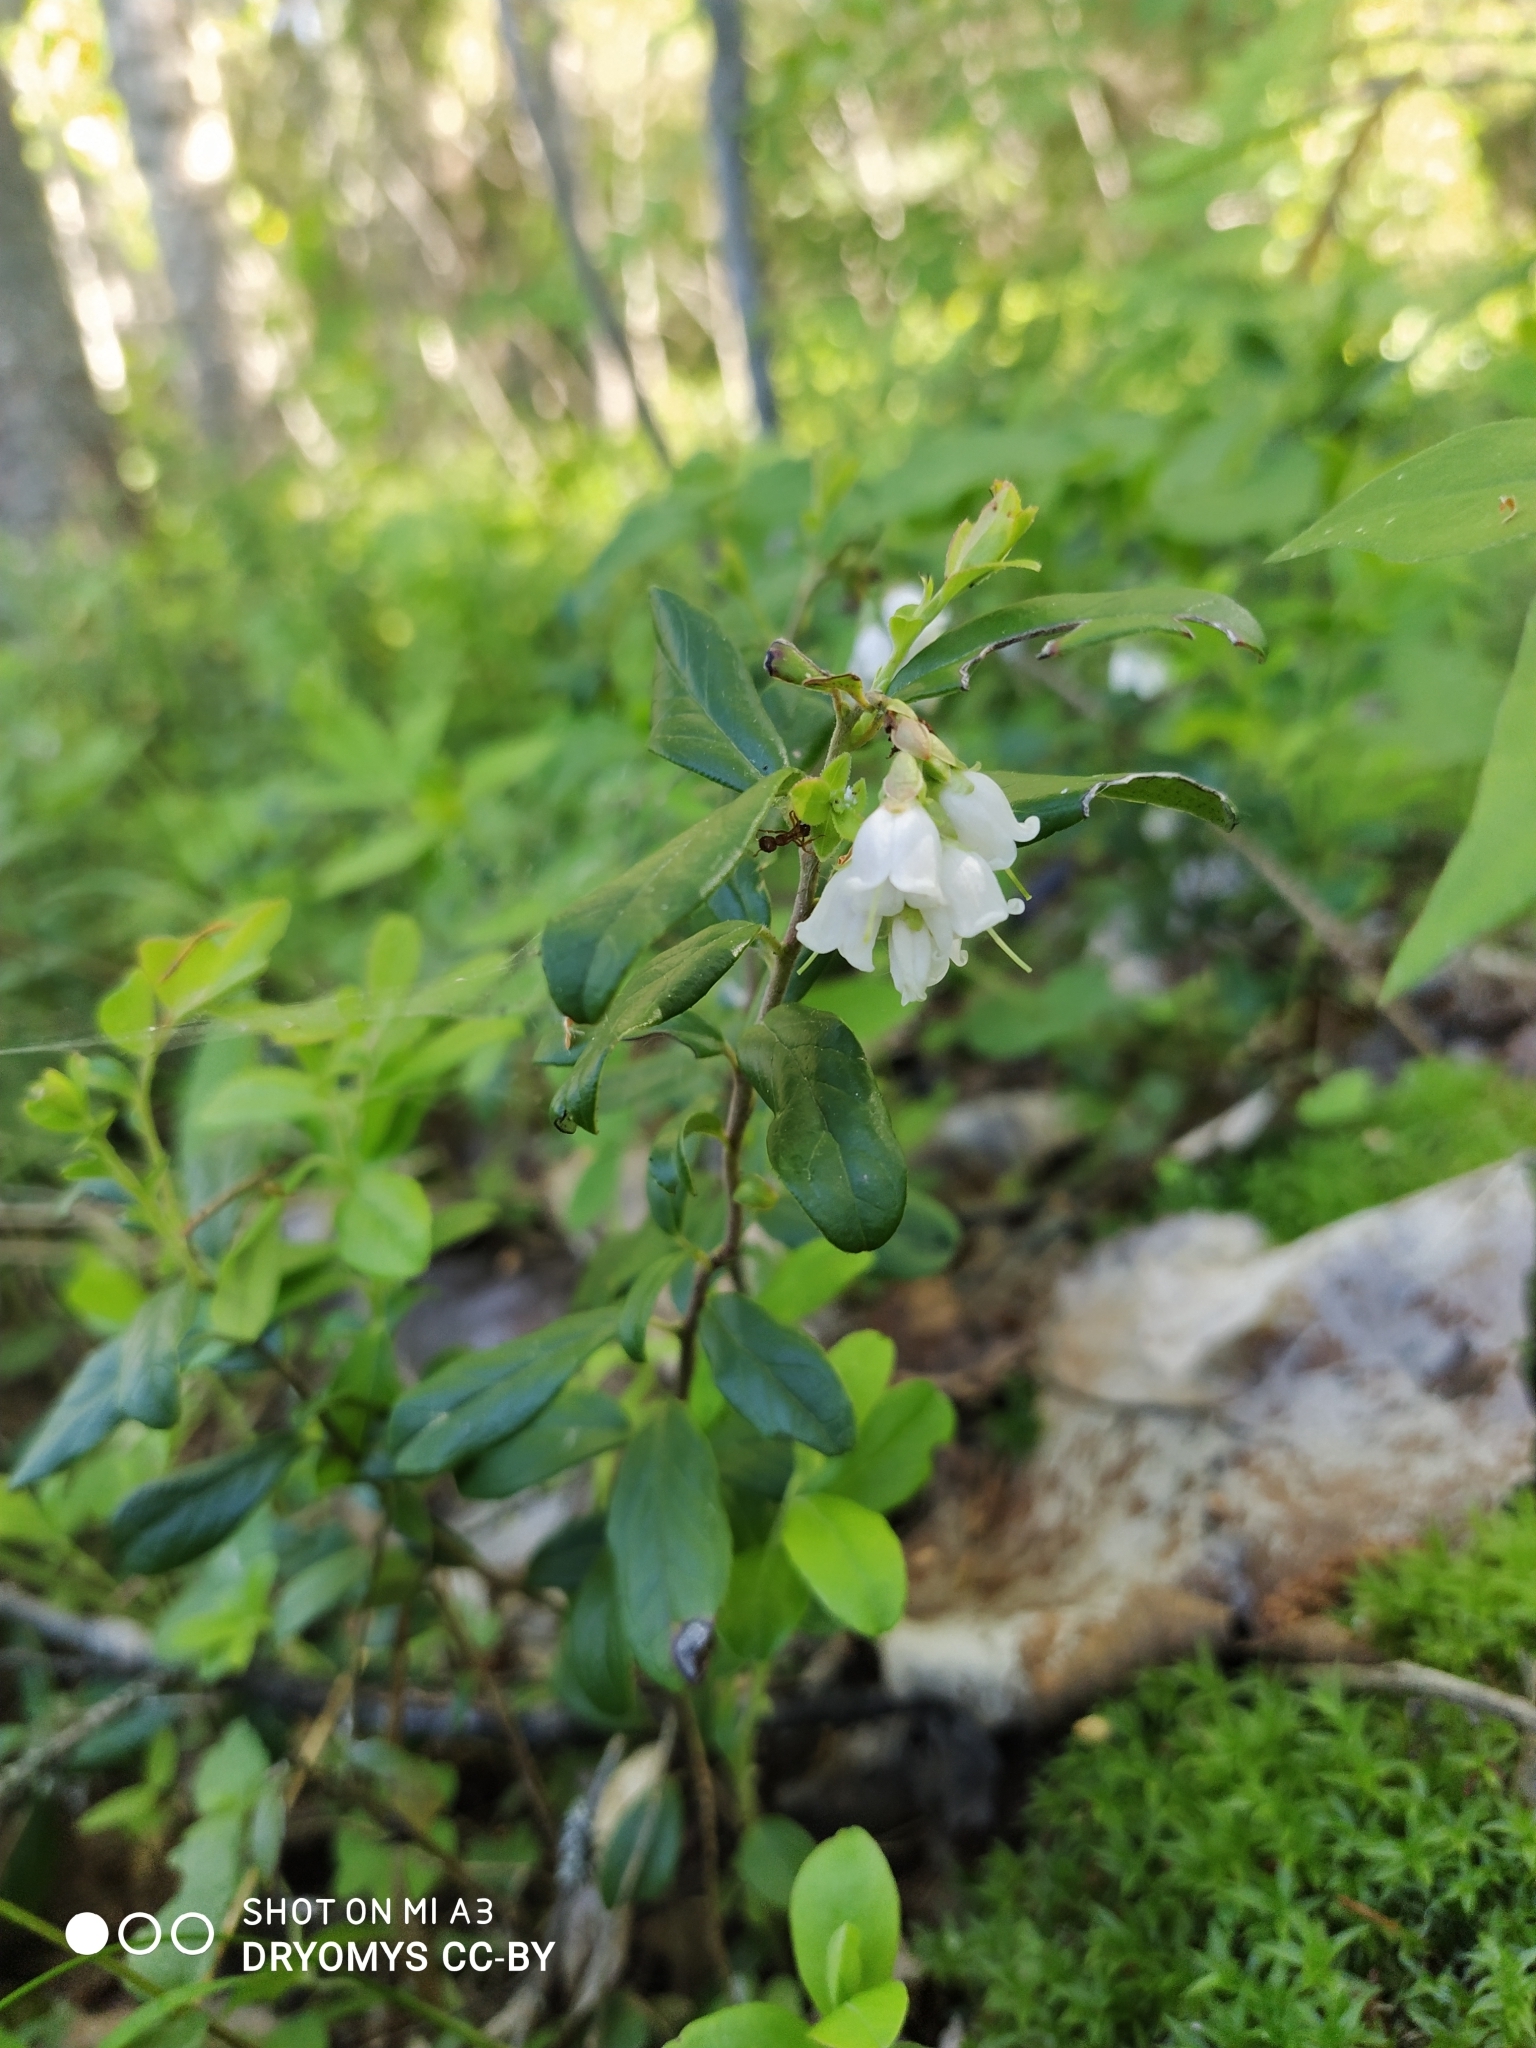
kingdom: Plantae
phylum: Tracheophyta
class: Magnoliopsida
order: Ericales
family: Ericaceae
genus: Vaccinium
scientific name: Vaccinium vitis-idaea
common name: Cowberry
